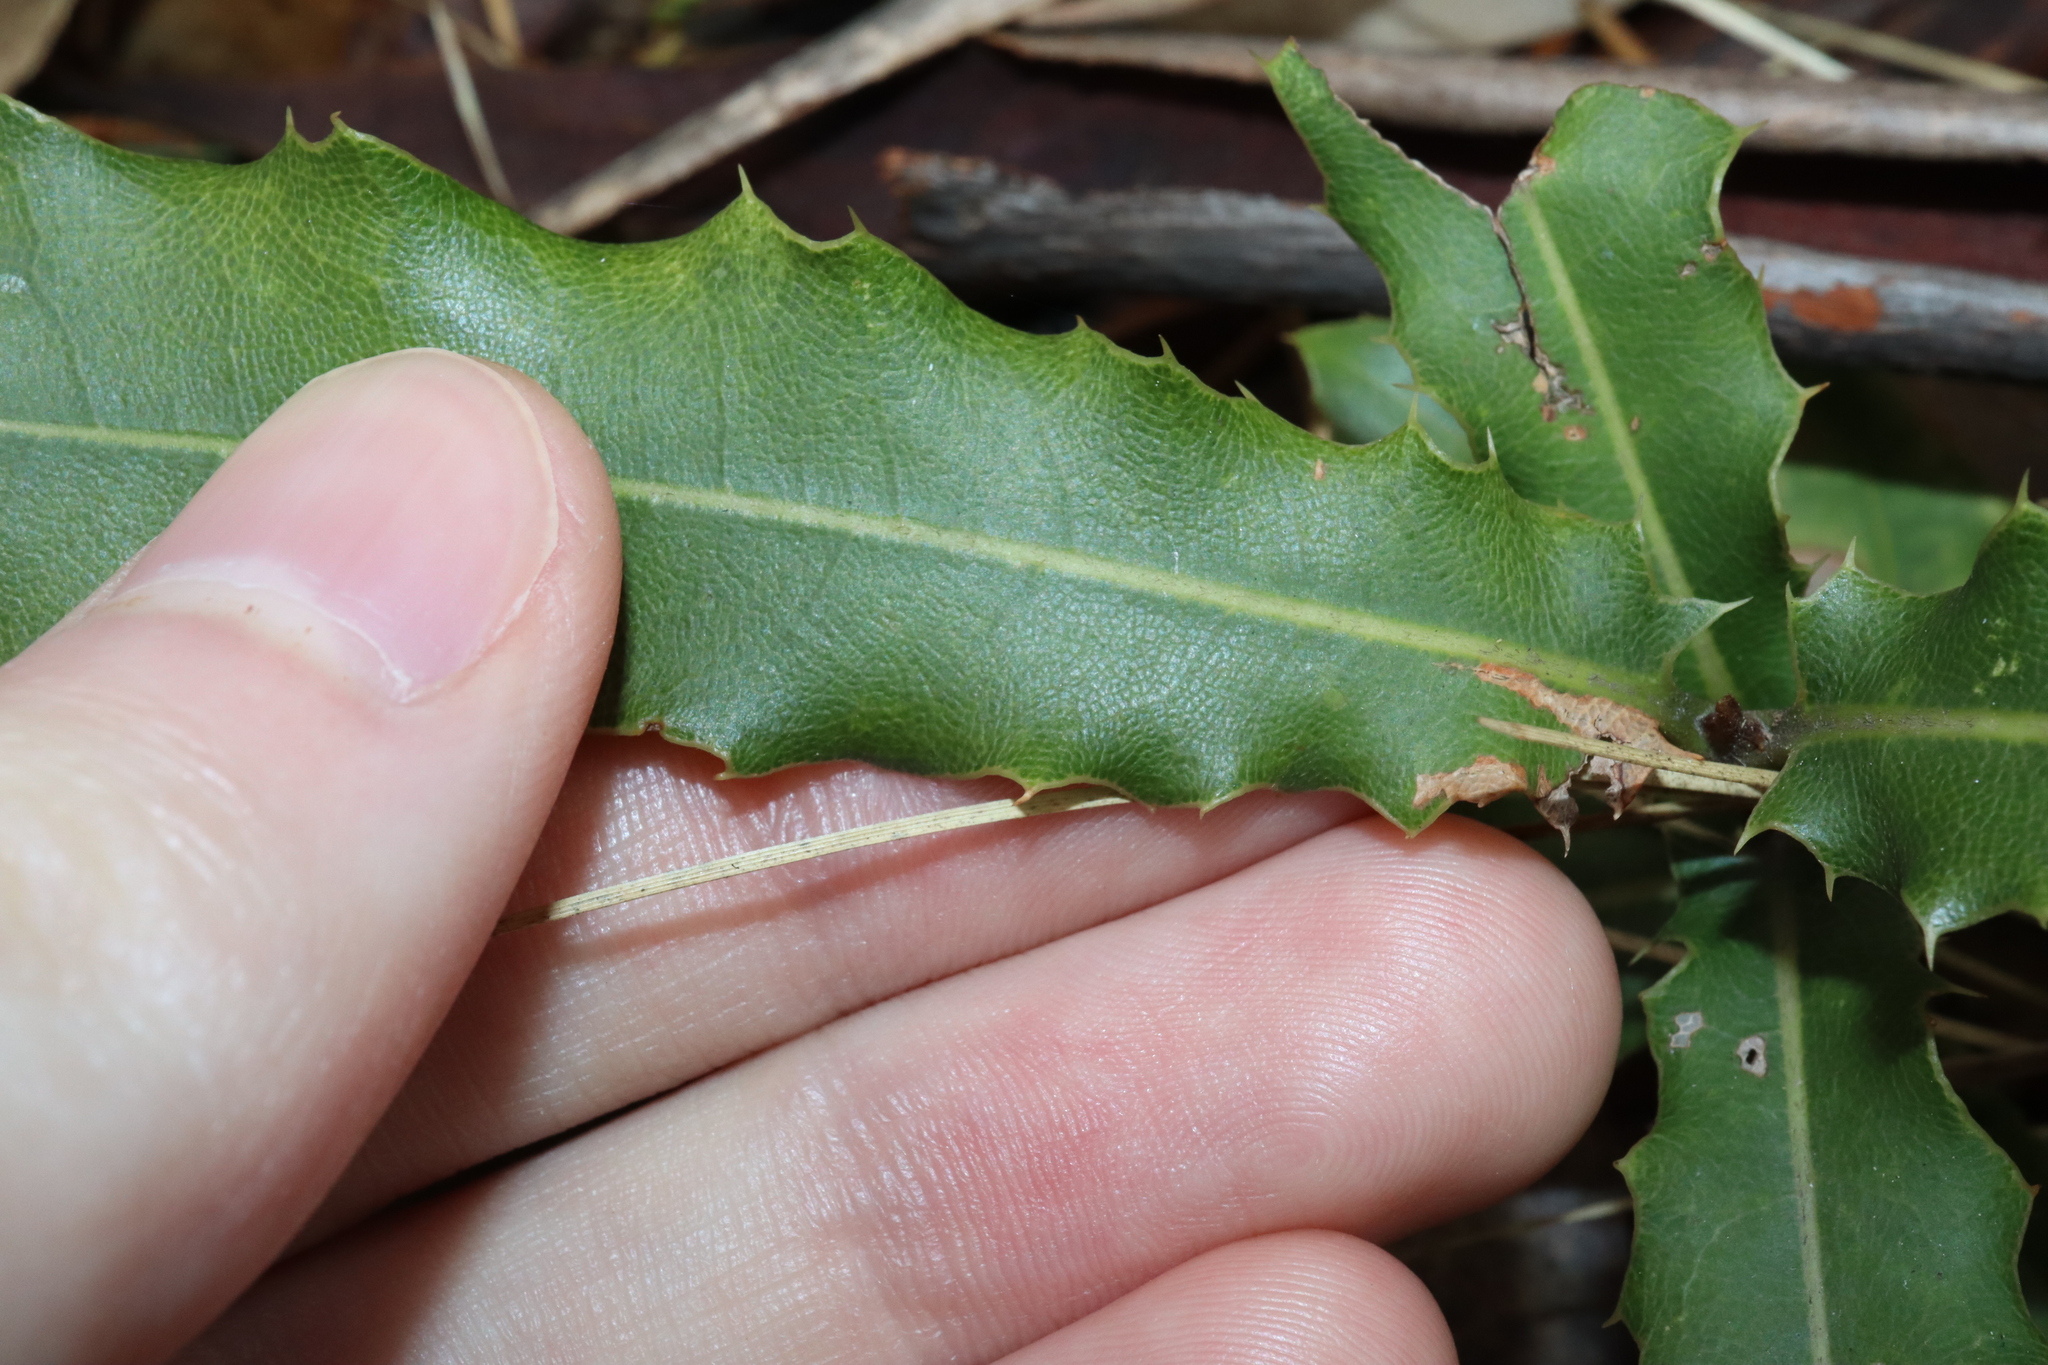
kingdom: Plantae
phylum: Tracheophyta
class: Magnoliopsida
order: Proteales
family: Proteaceae
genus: Macadamia
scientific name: Macadamia integrifolia
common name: Macadamia
